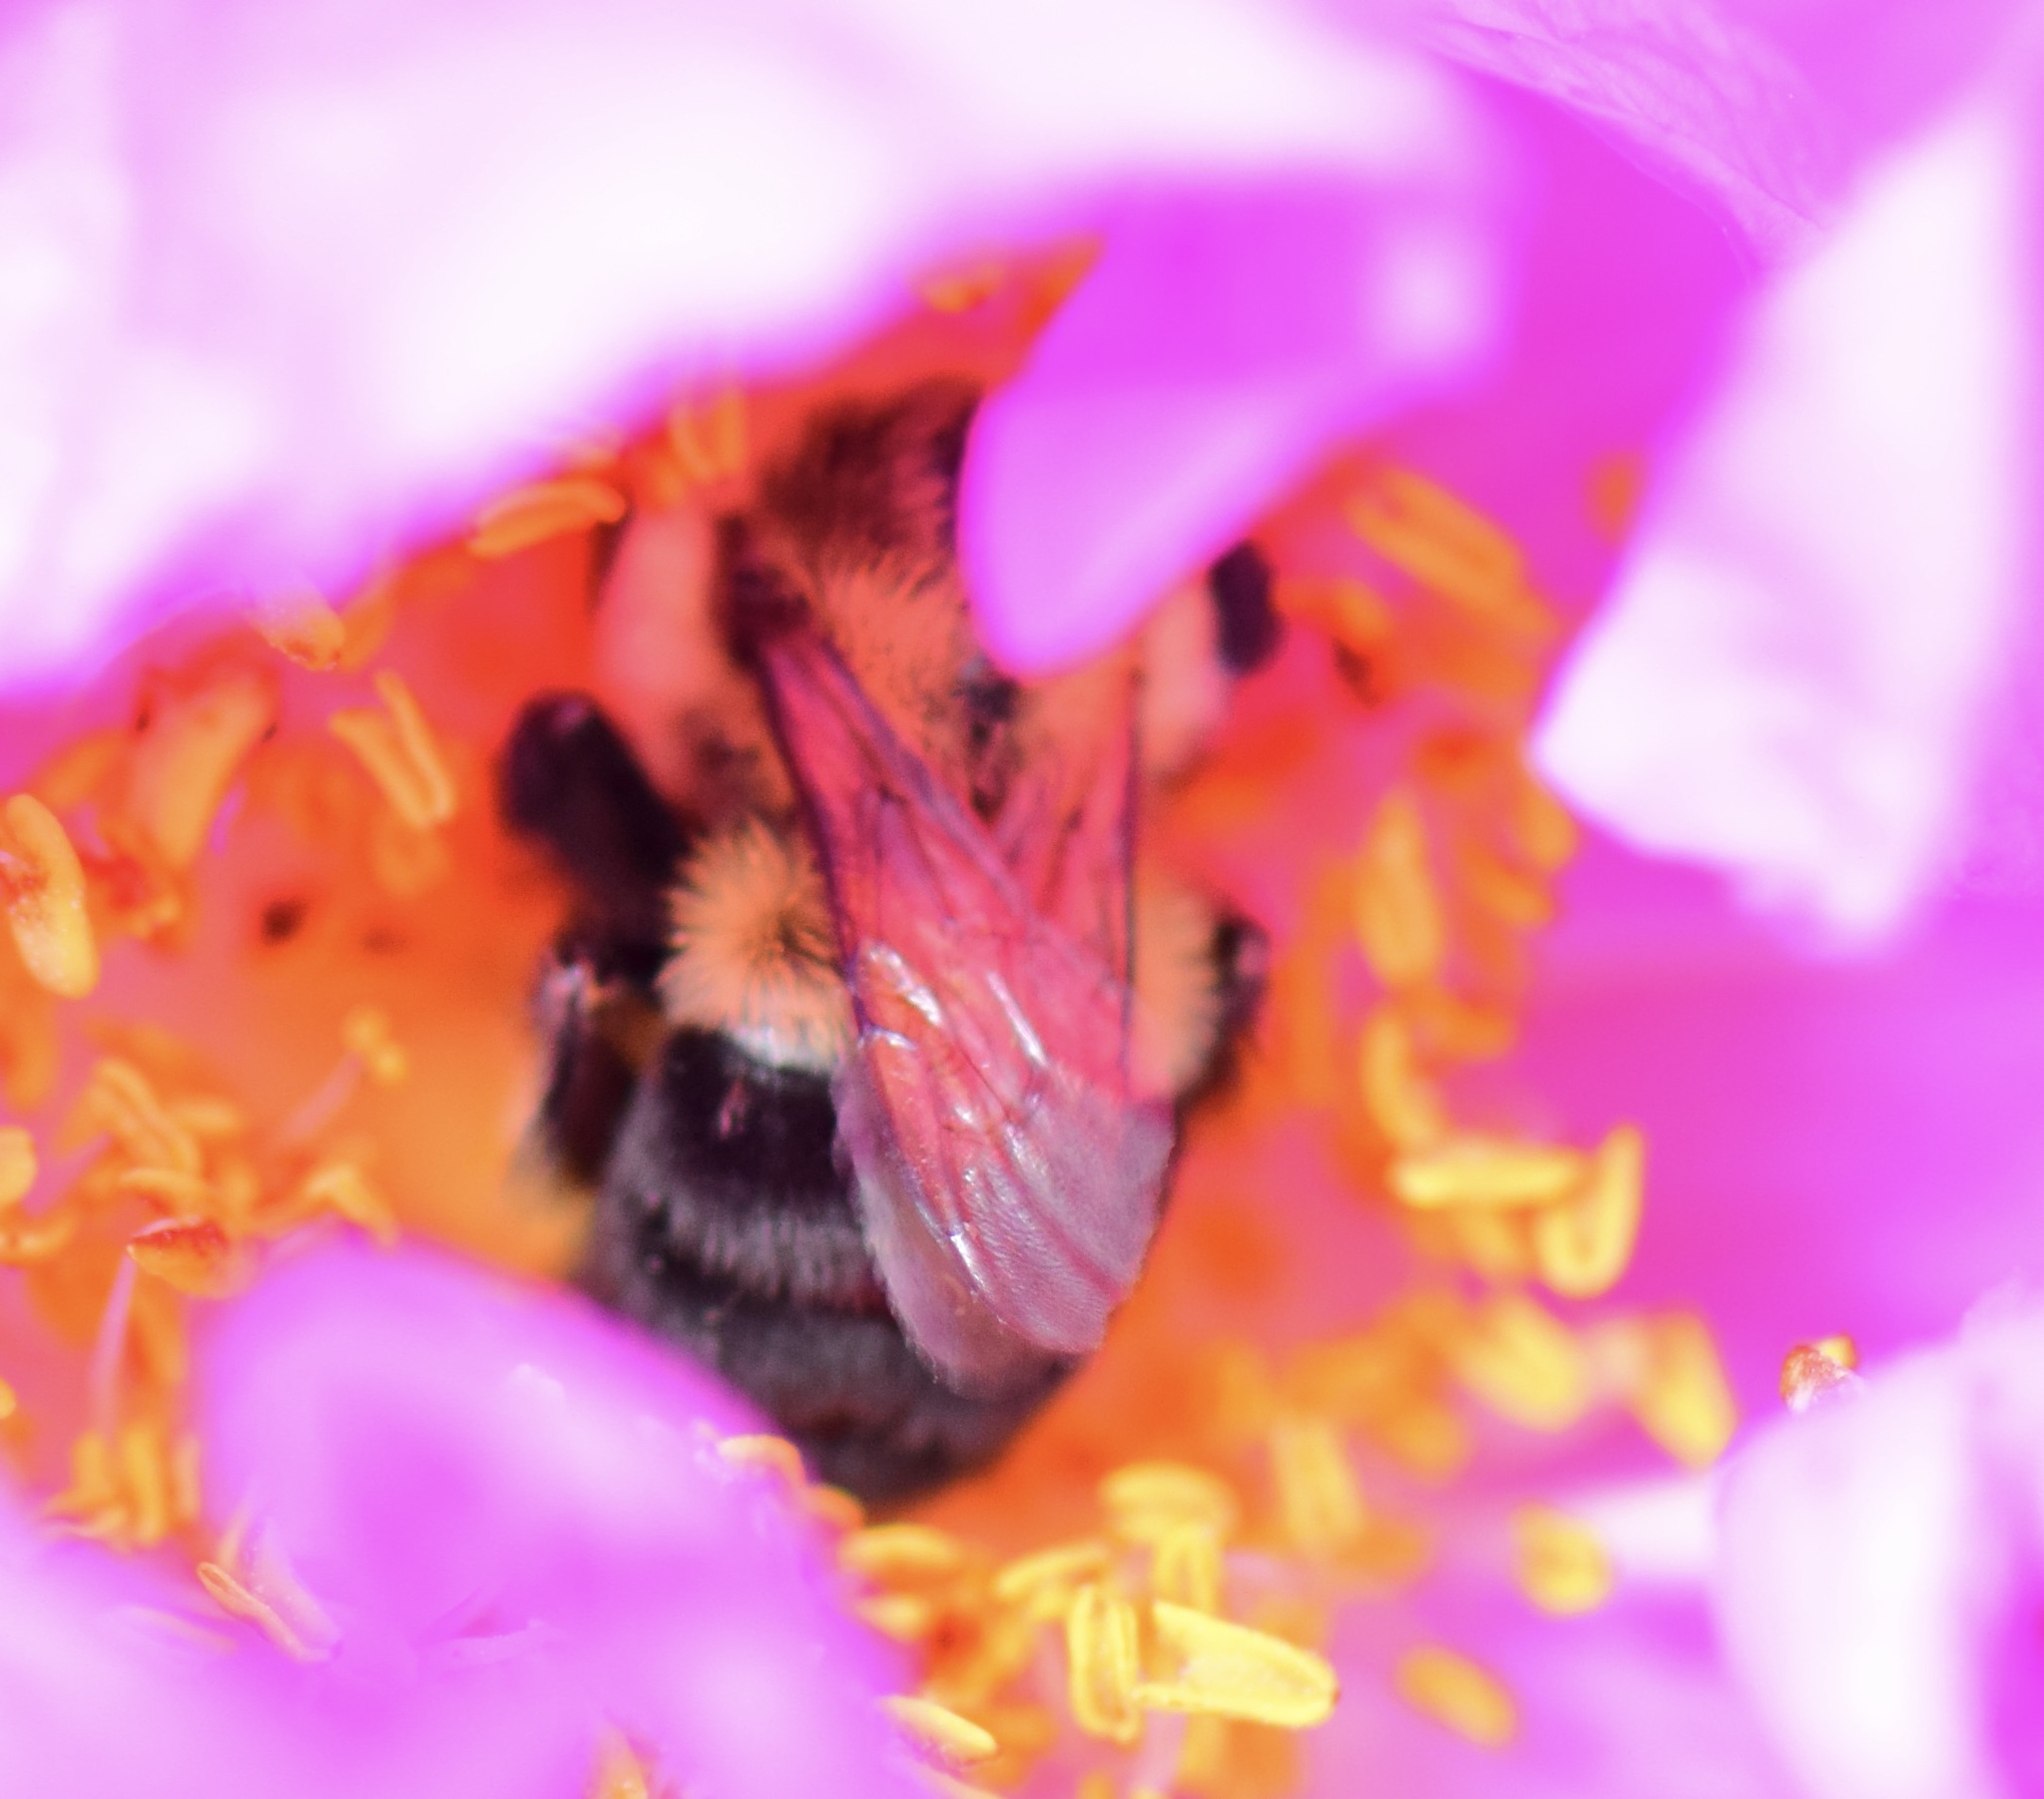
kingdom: Animalia
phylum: Arthropoda
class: Insecta
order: Hymenoptera
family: Apidae
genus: Bombus
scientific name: Bombus impatiens
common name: Common eastern bumble bee
